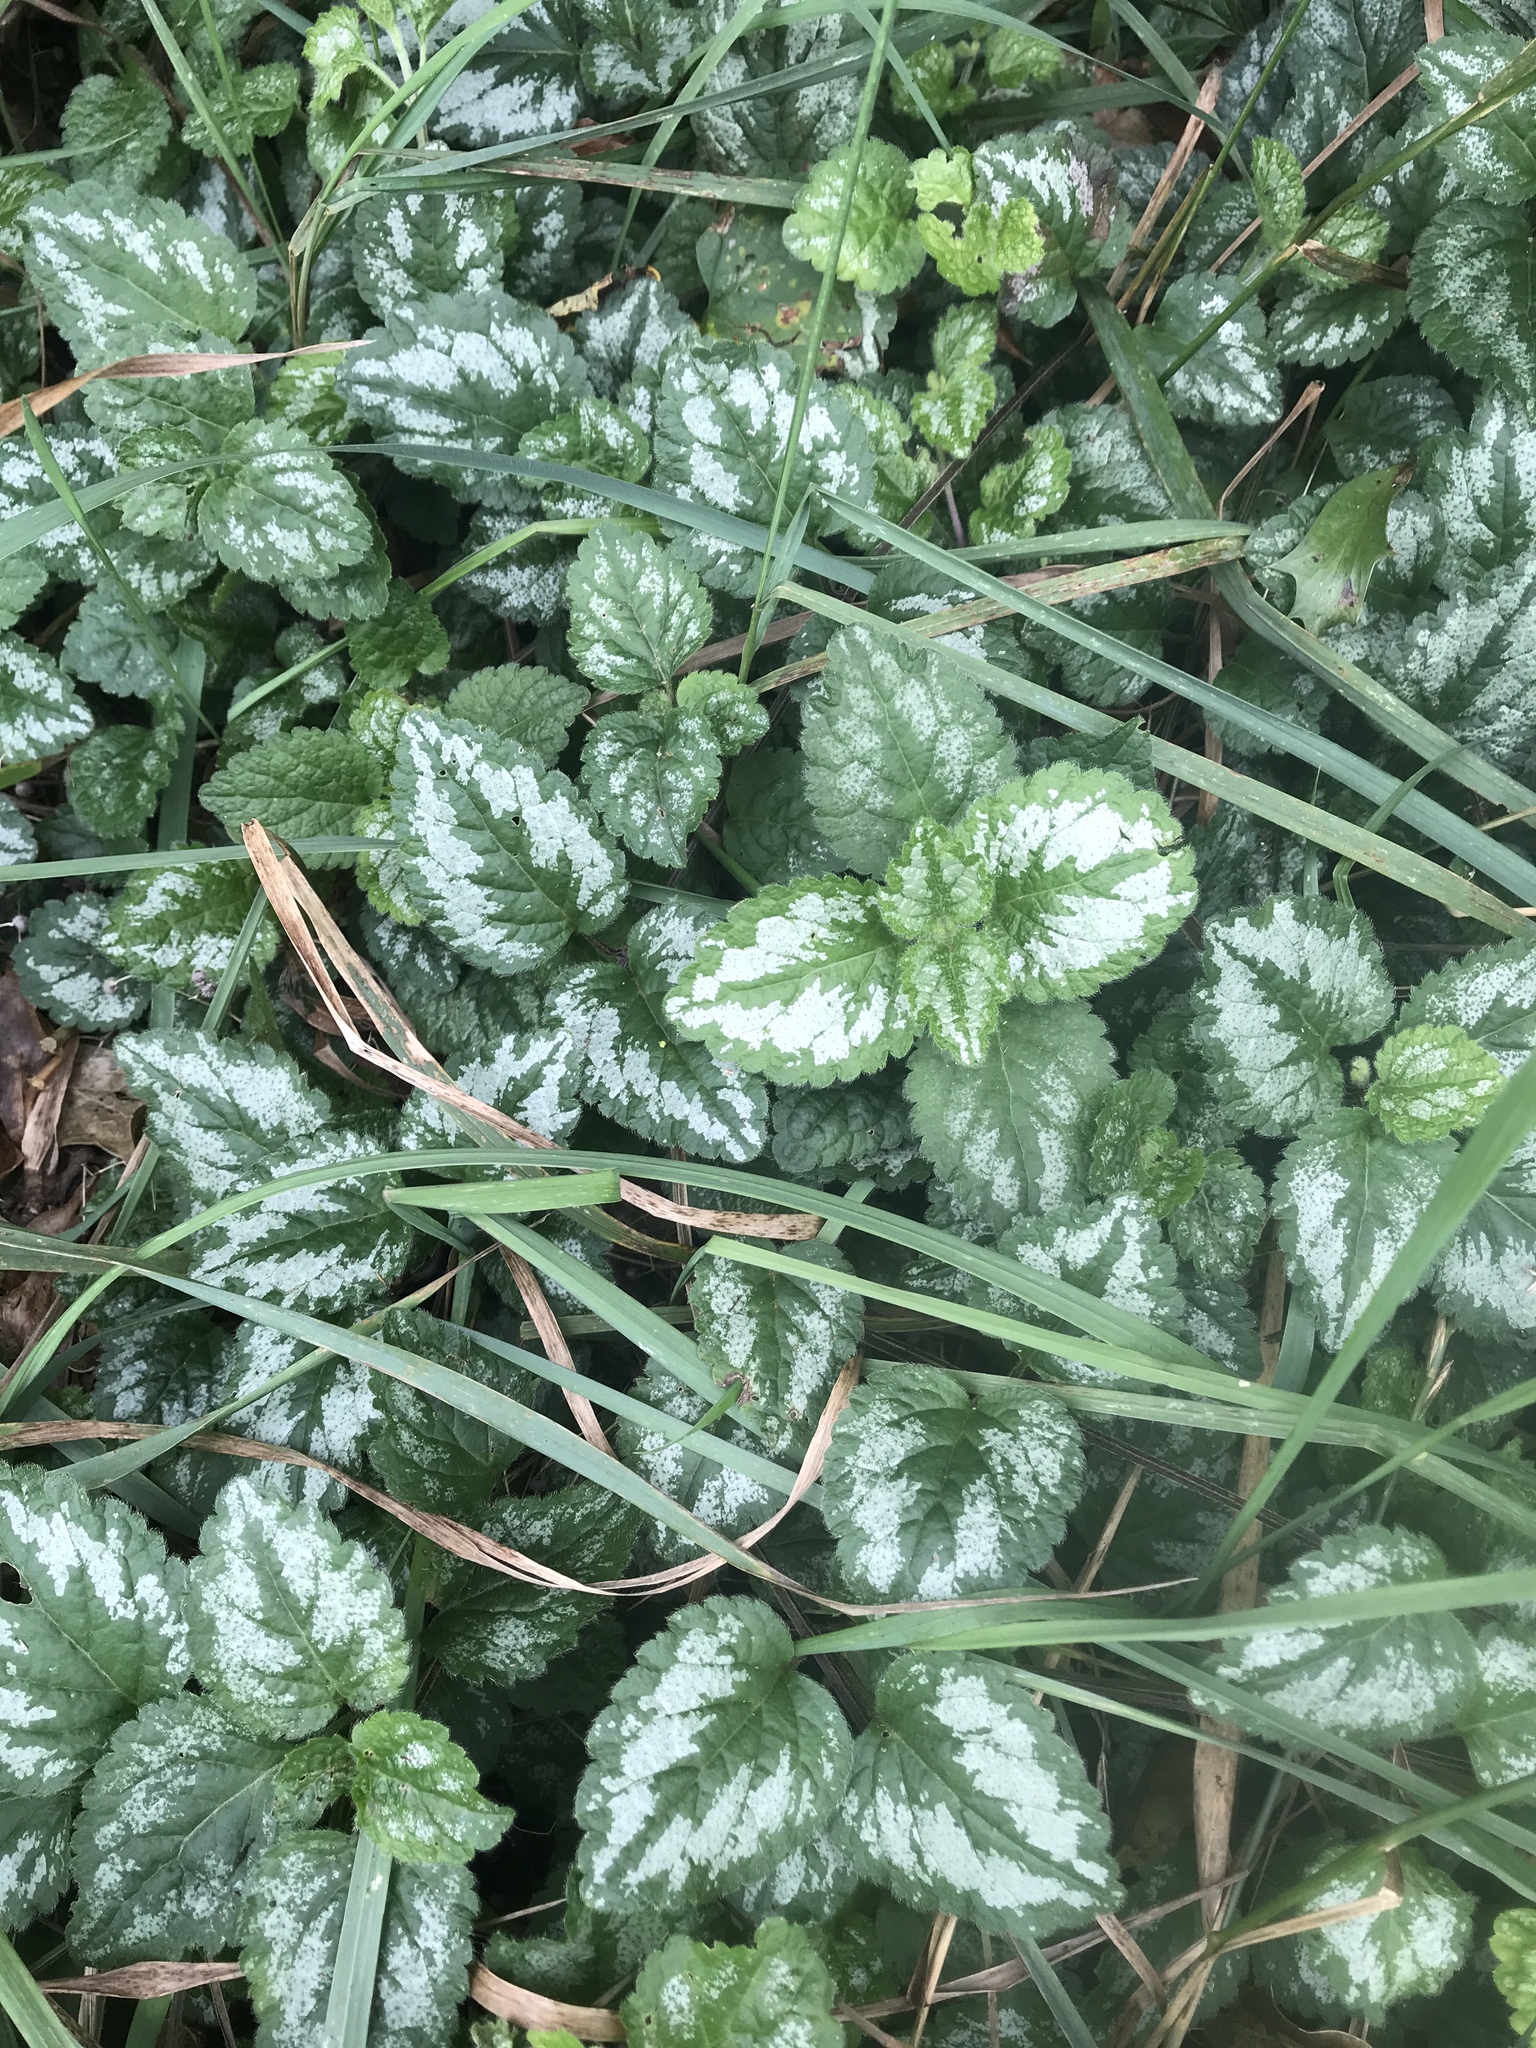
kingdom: Plantae
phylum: Tracheophyta
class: Magnoliopsida
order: Lamiales
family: Lamiaceae
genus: Lamium
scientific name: Lamium galeobdolon
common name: Yellow archangel
